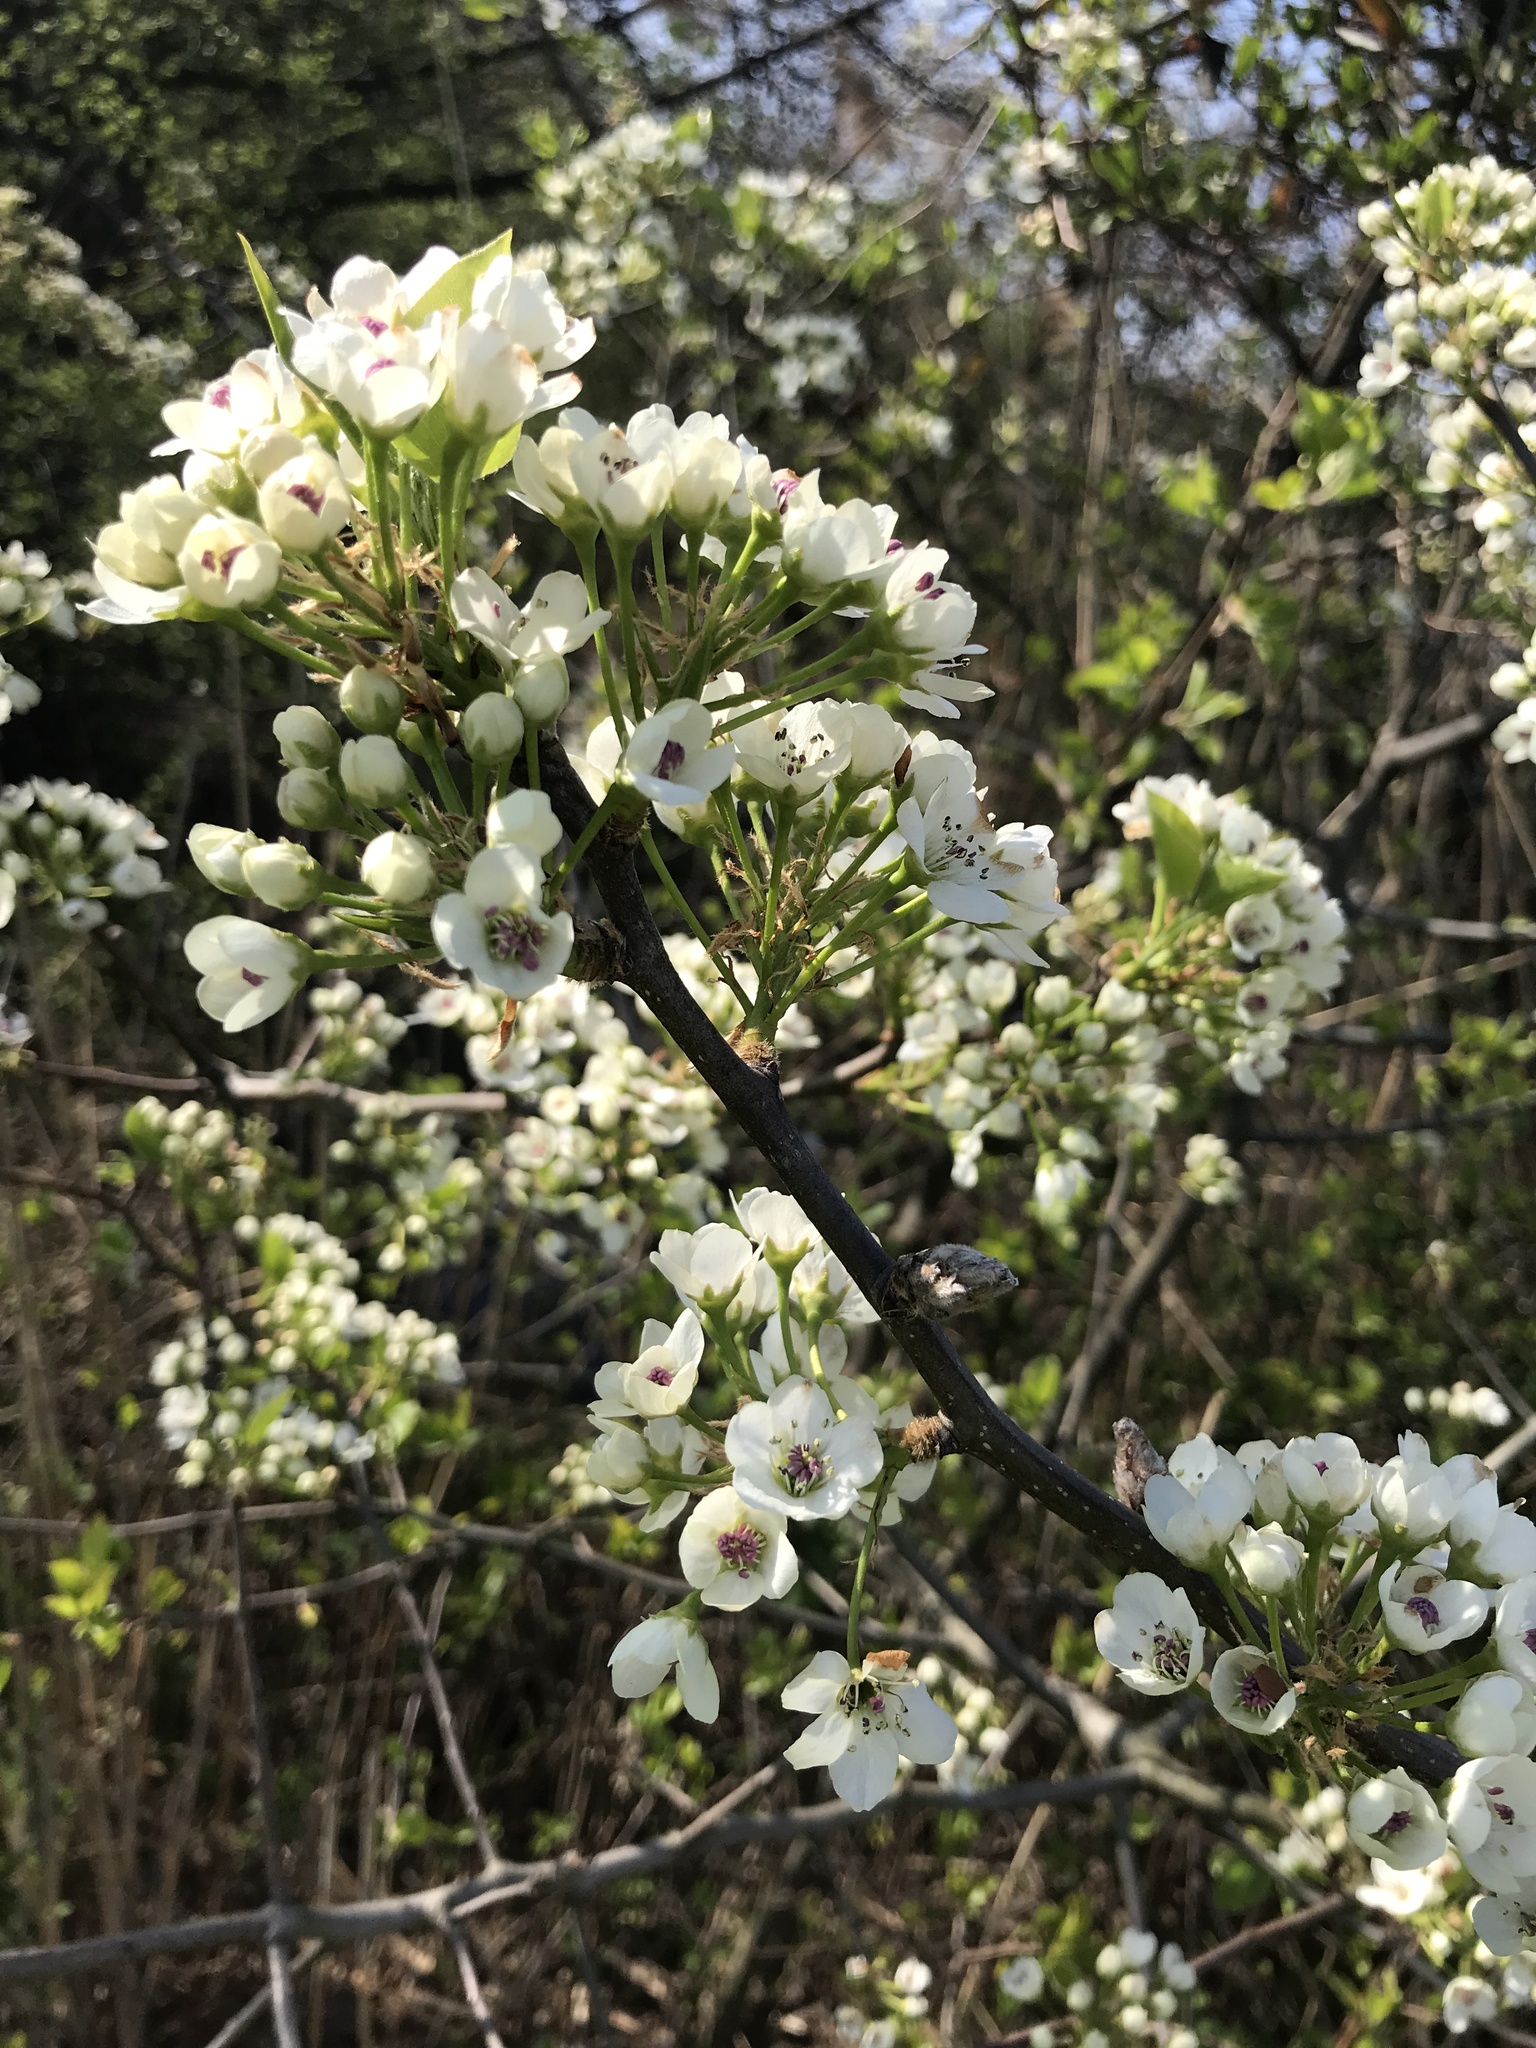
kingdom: Plantae
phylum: Tracheophyta
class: Magnoliopsida
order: Rosales
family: Rosaceae
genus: Pyrus
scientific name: Pyrus calleryana
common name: Callery pear
